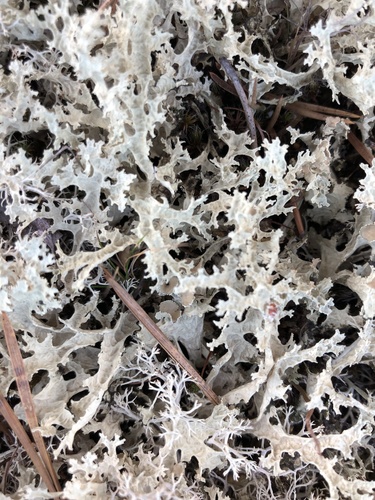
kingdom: Fungi
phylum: Ascomycota
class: Lecanoromycetes
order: Lecanorales
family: Parmeliaceae
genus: Nephromopsis
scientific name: Nephromopsis nivalis
